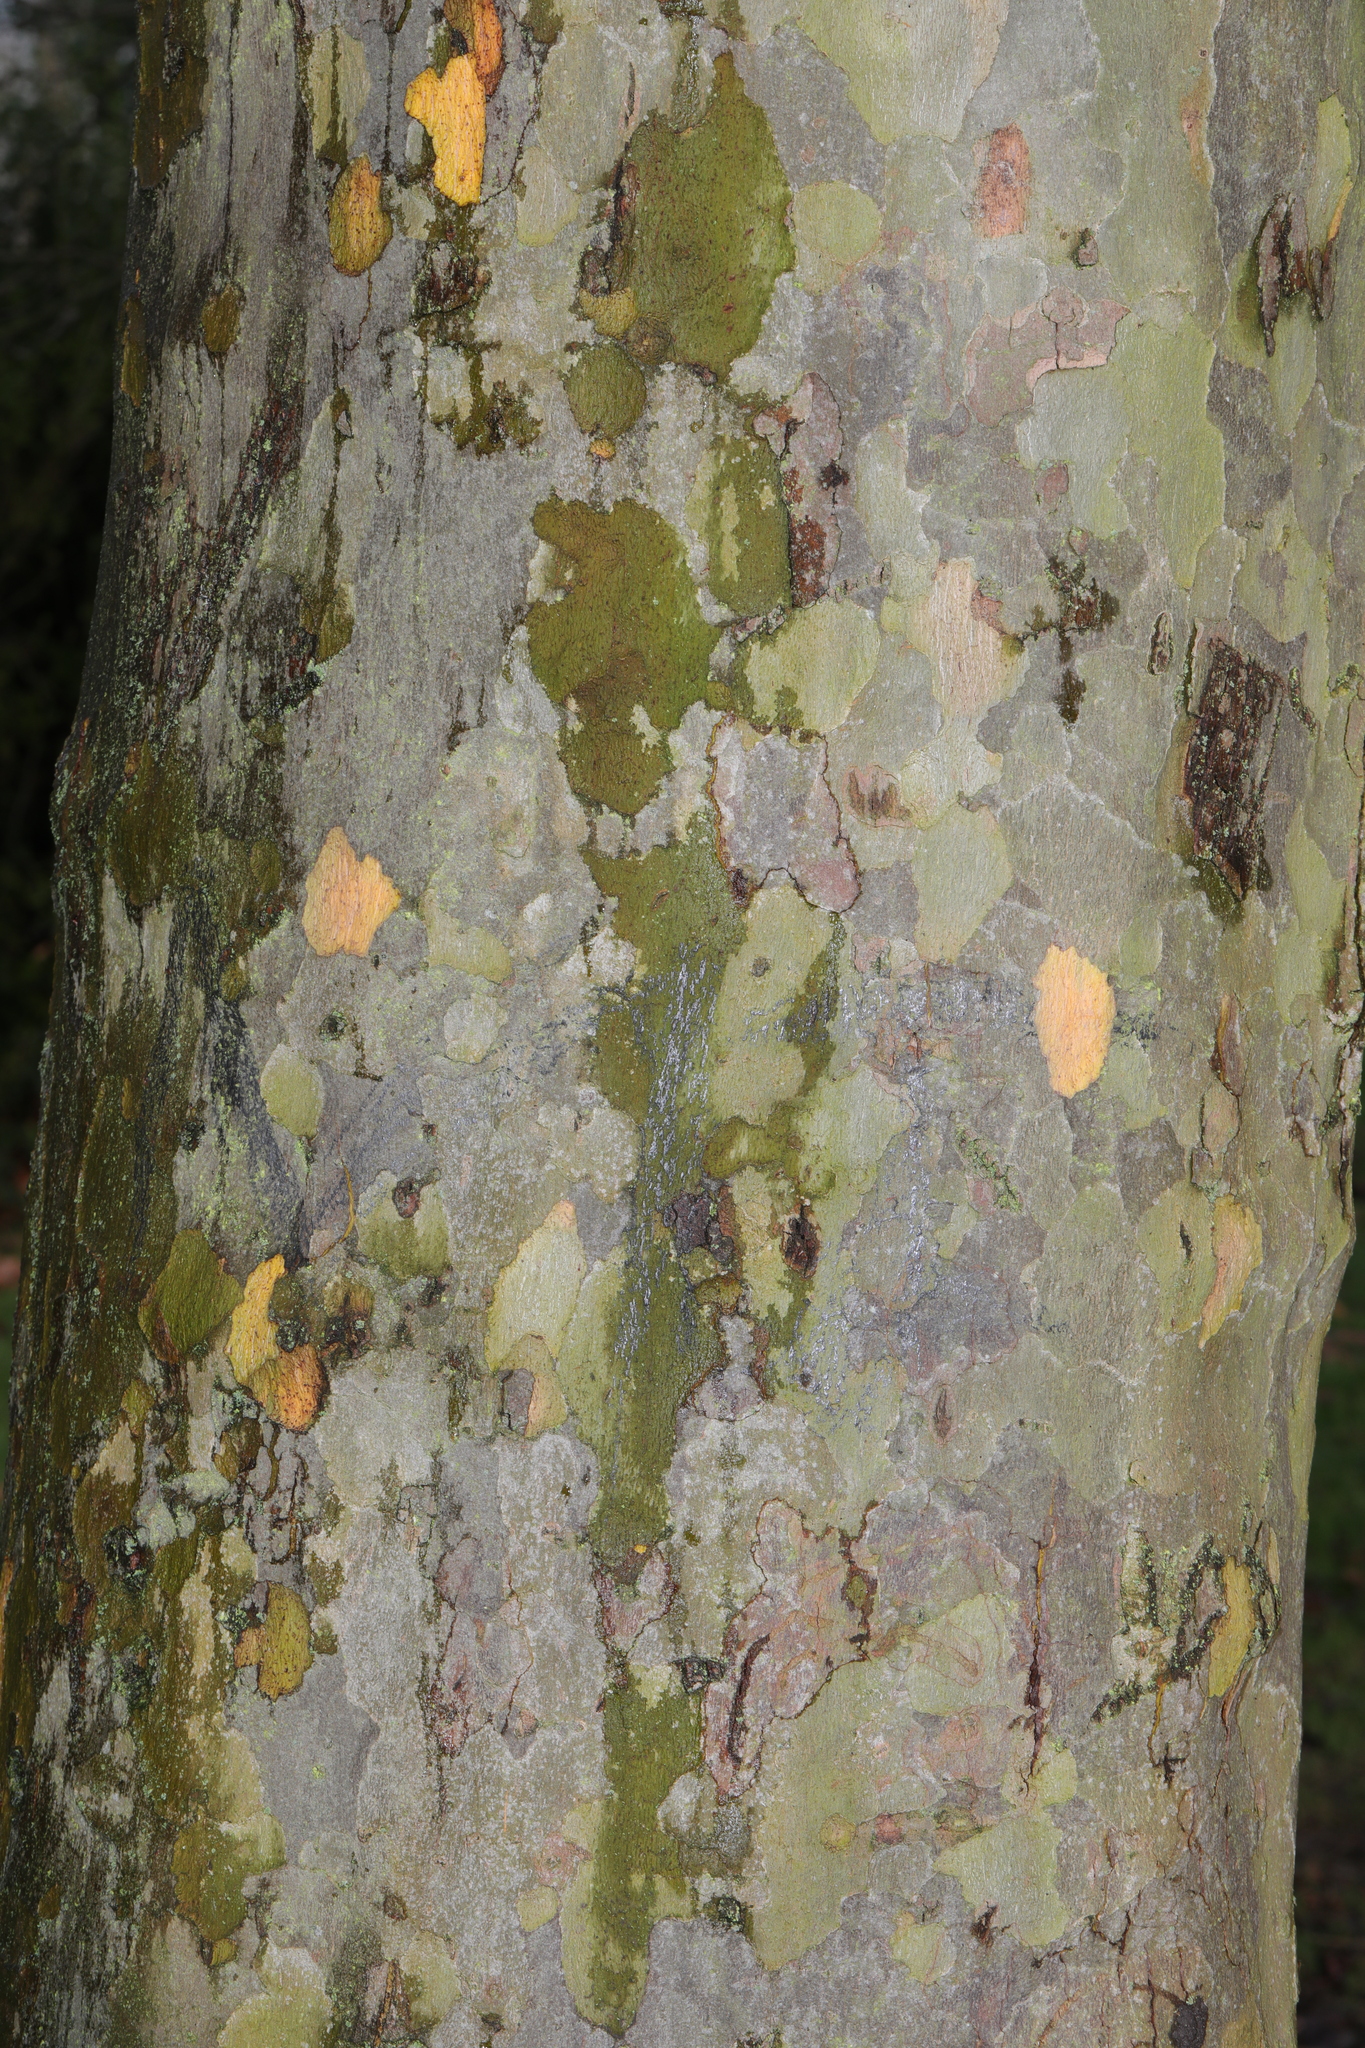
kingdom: Plantae
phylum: Tracheophyta
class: Magnoliopsida
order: Proteales
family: Platanaceae
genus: Platanus
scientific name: Platanus hispanica
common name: London plane
